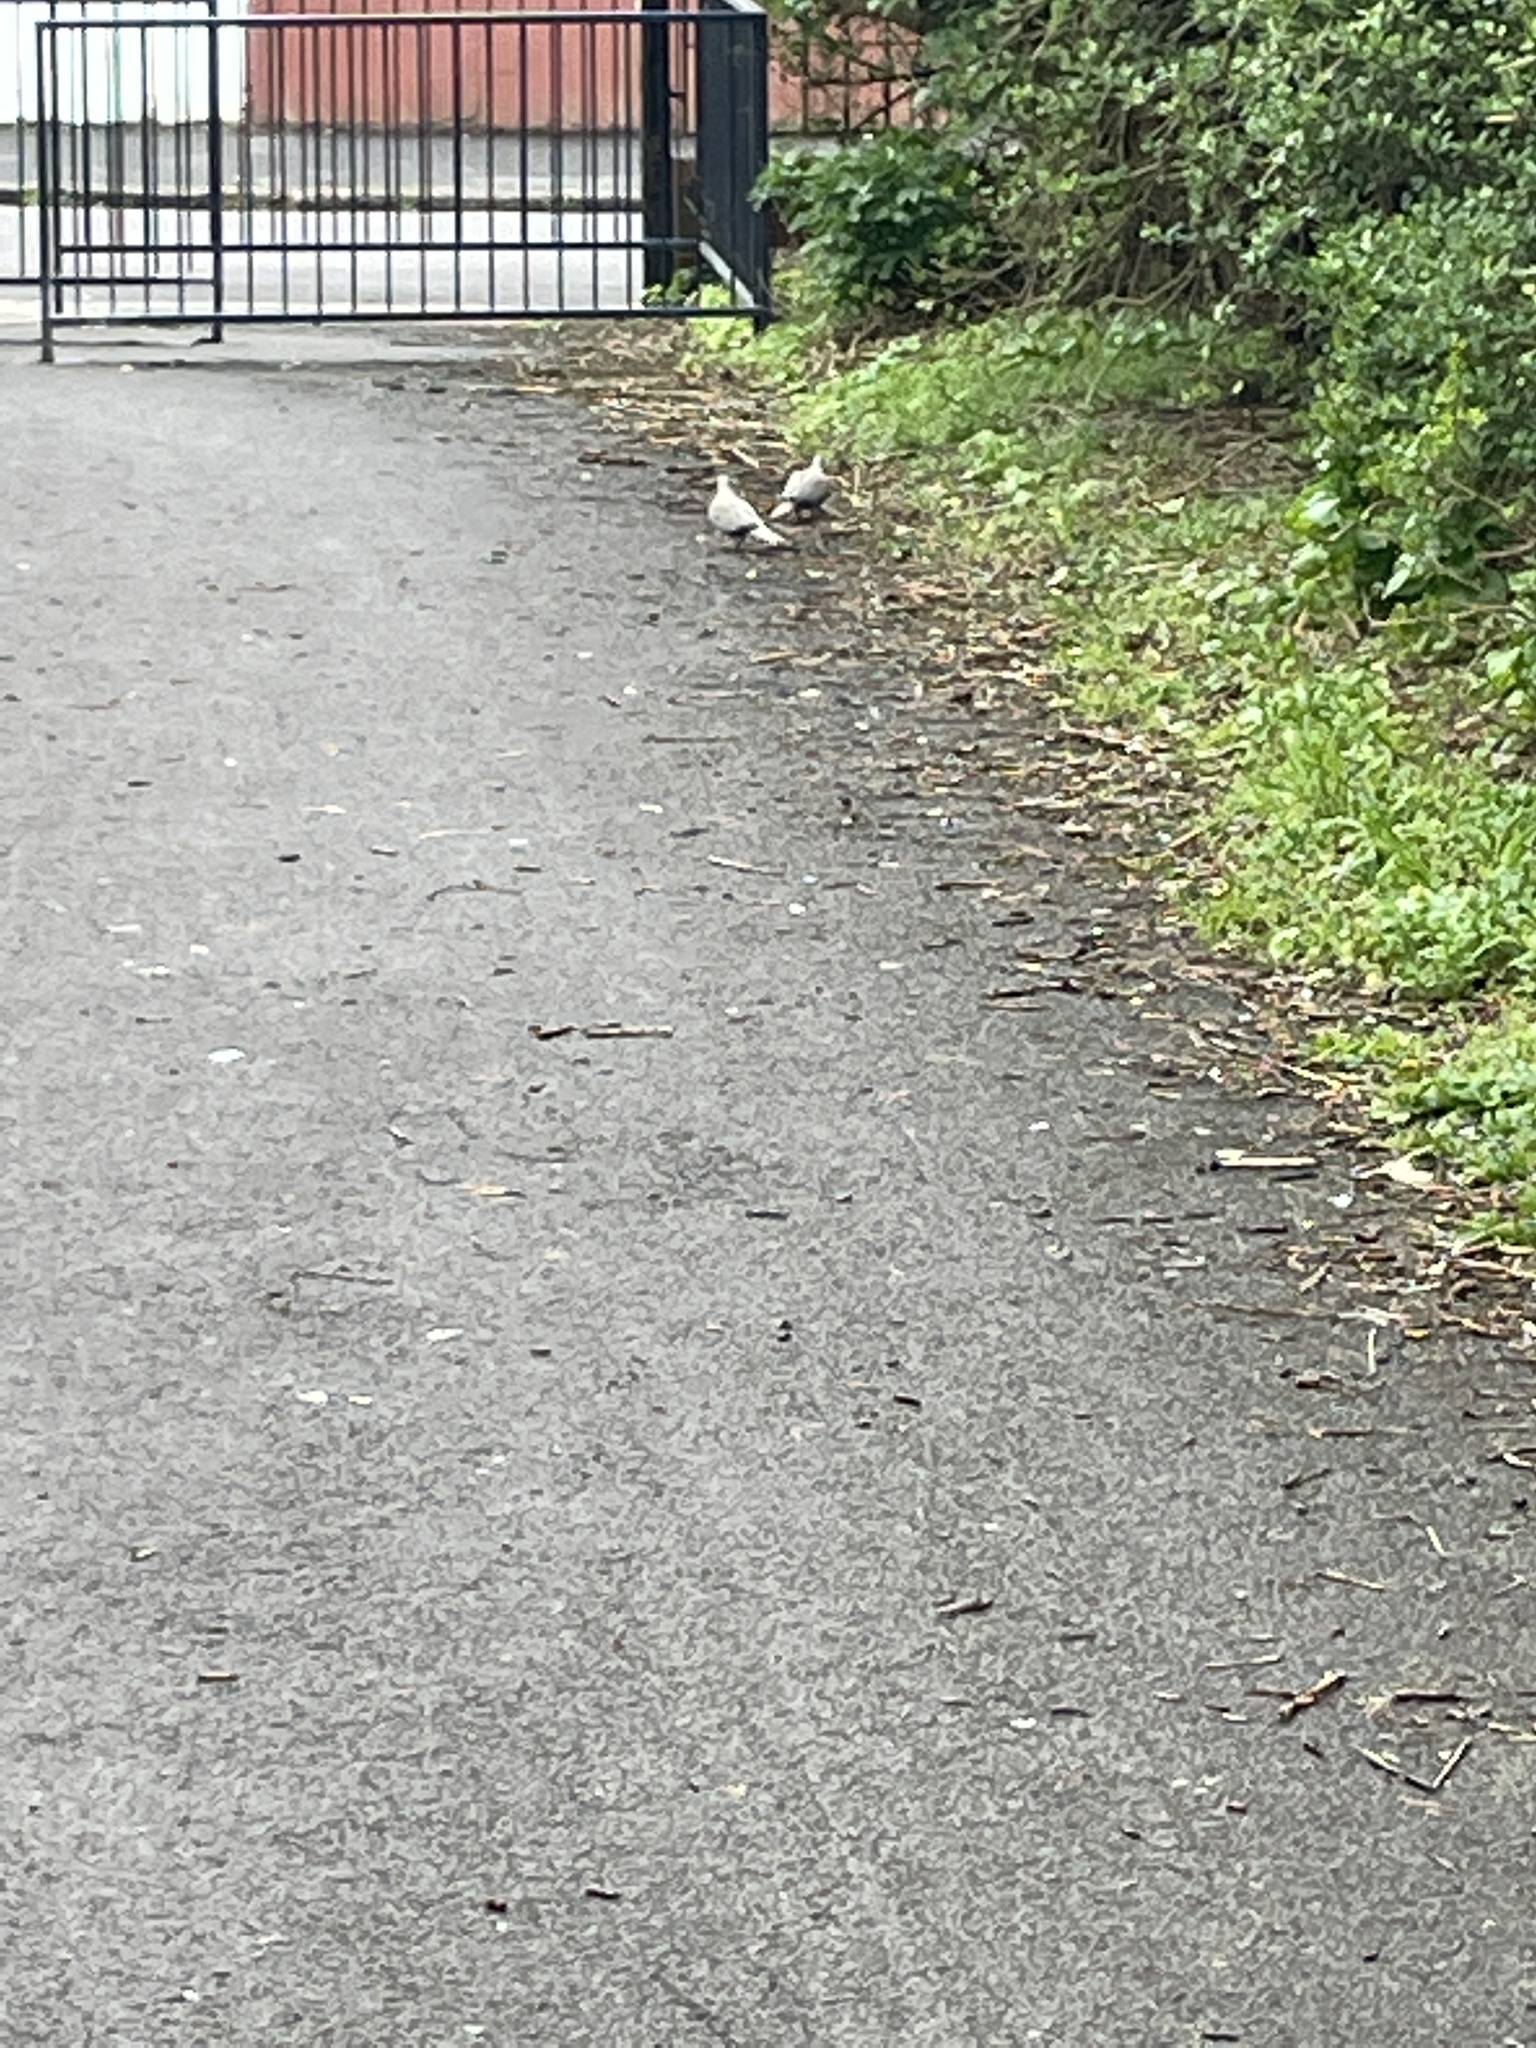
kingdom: Animalia
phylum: Chordata
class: Aves
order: Columbiformes
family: Columbidae
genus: Streptopelia
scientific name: Streptopelia decaocto
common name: Eurasian collared dove
